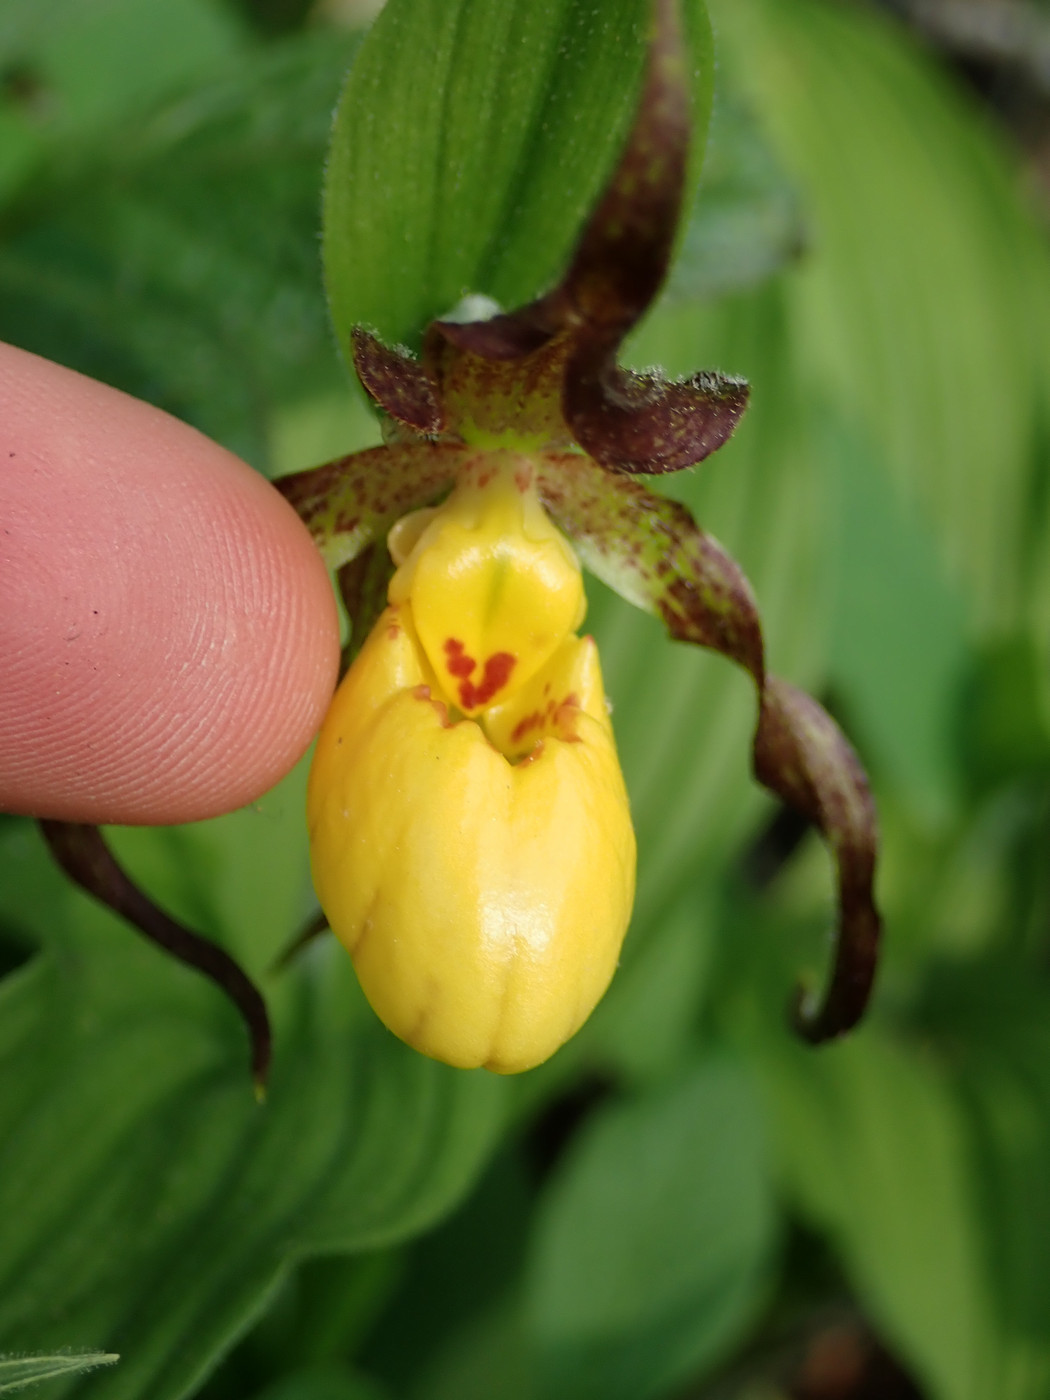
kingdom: Plantae
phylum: Tracheophyta
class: Liliopsida
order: Asparagales
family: Orchidaceae
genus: Cypripedium
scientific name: Cypripedium parviflorum
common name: American yellow lady's-slipper
